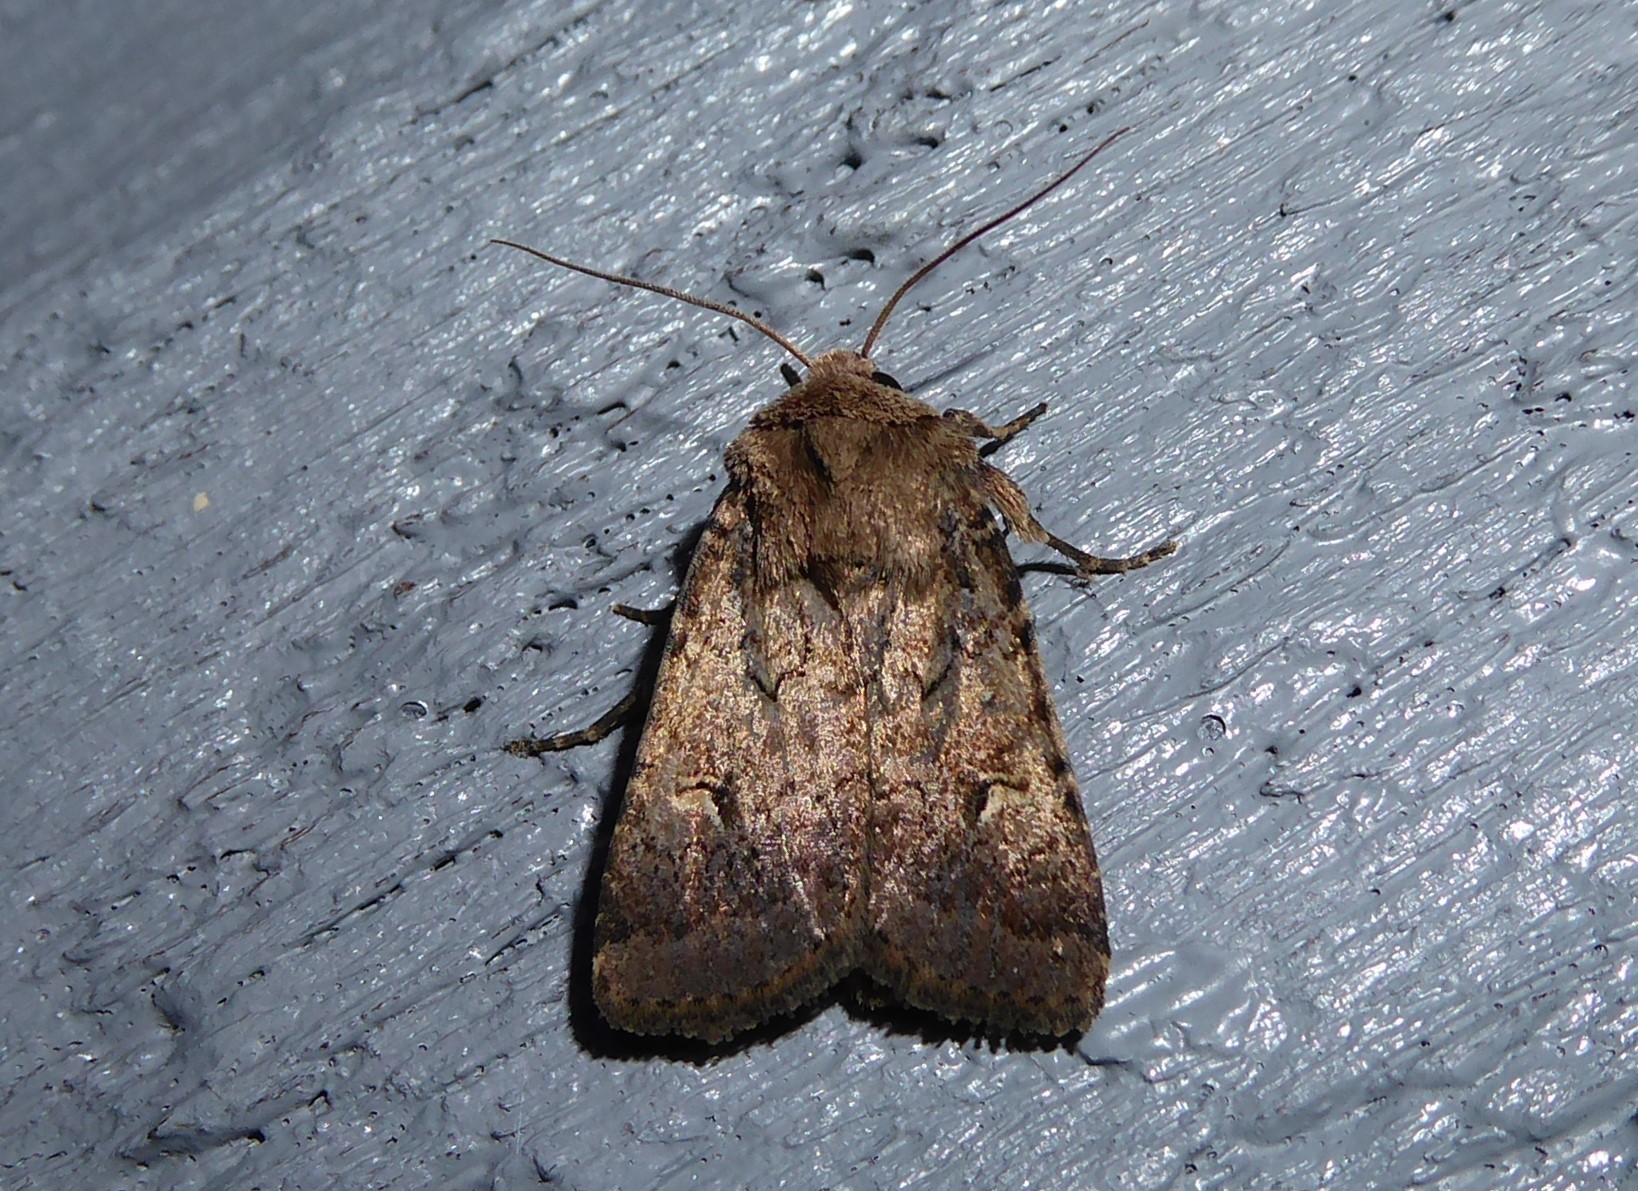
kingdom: Animalia
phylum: Arthropoda
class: Insecta
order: Lepidoptera
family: Noctuidae
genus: Proteuxoa
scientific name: Proteuxoa tetronycha
